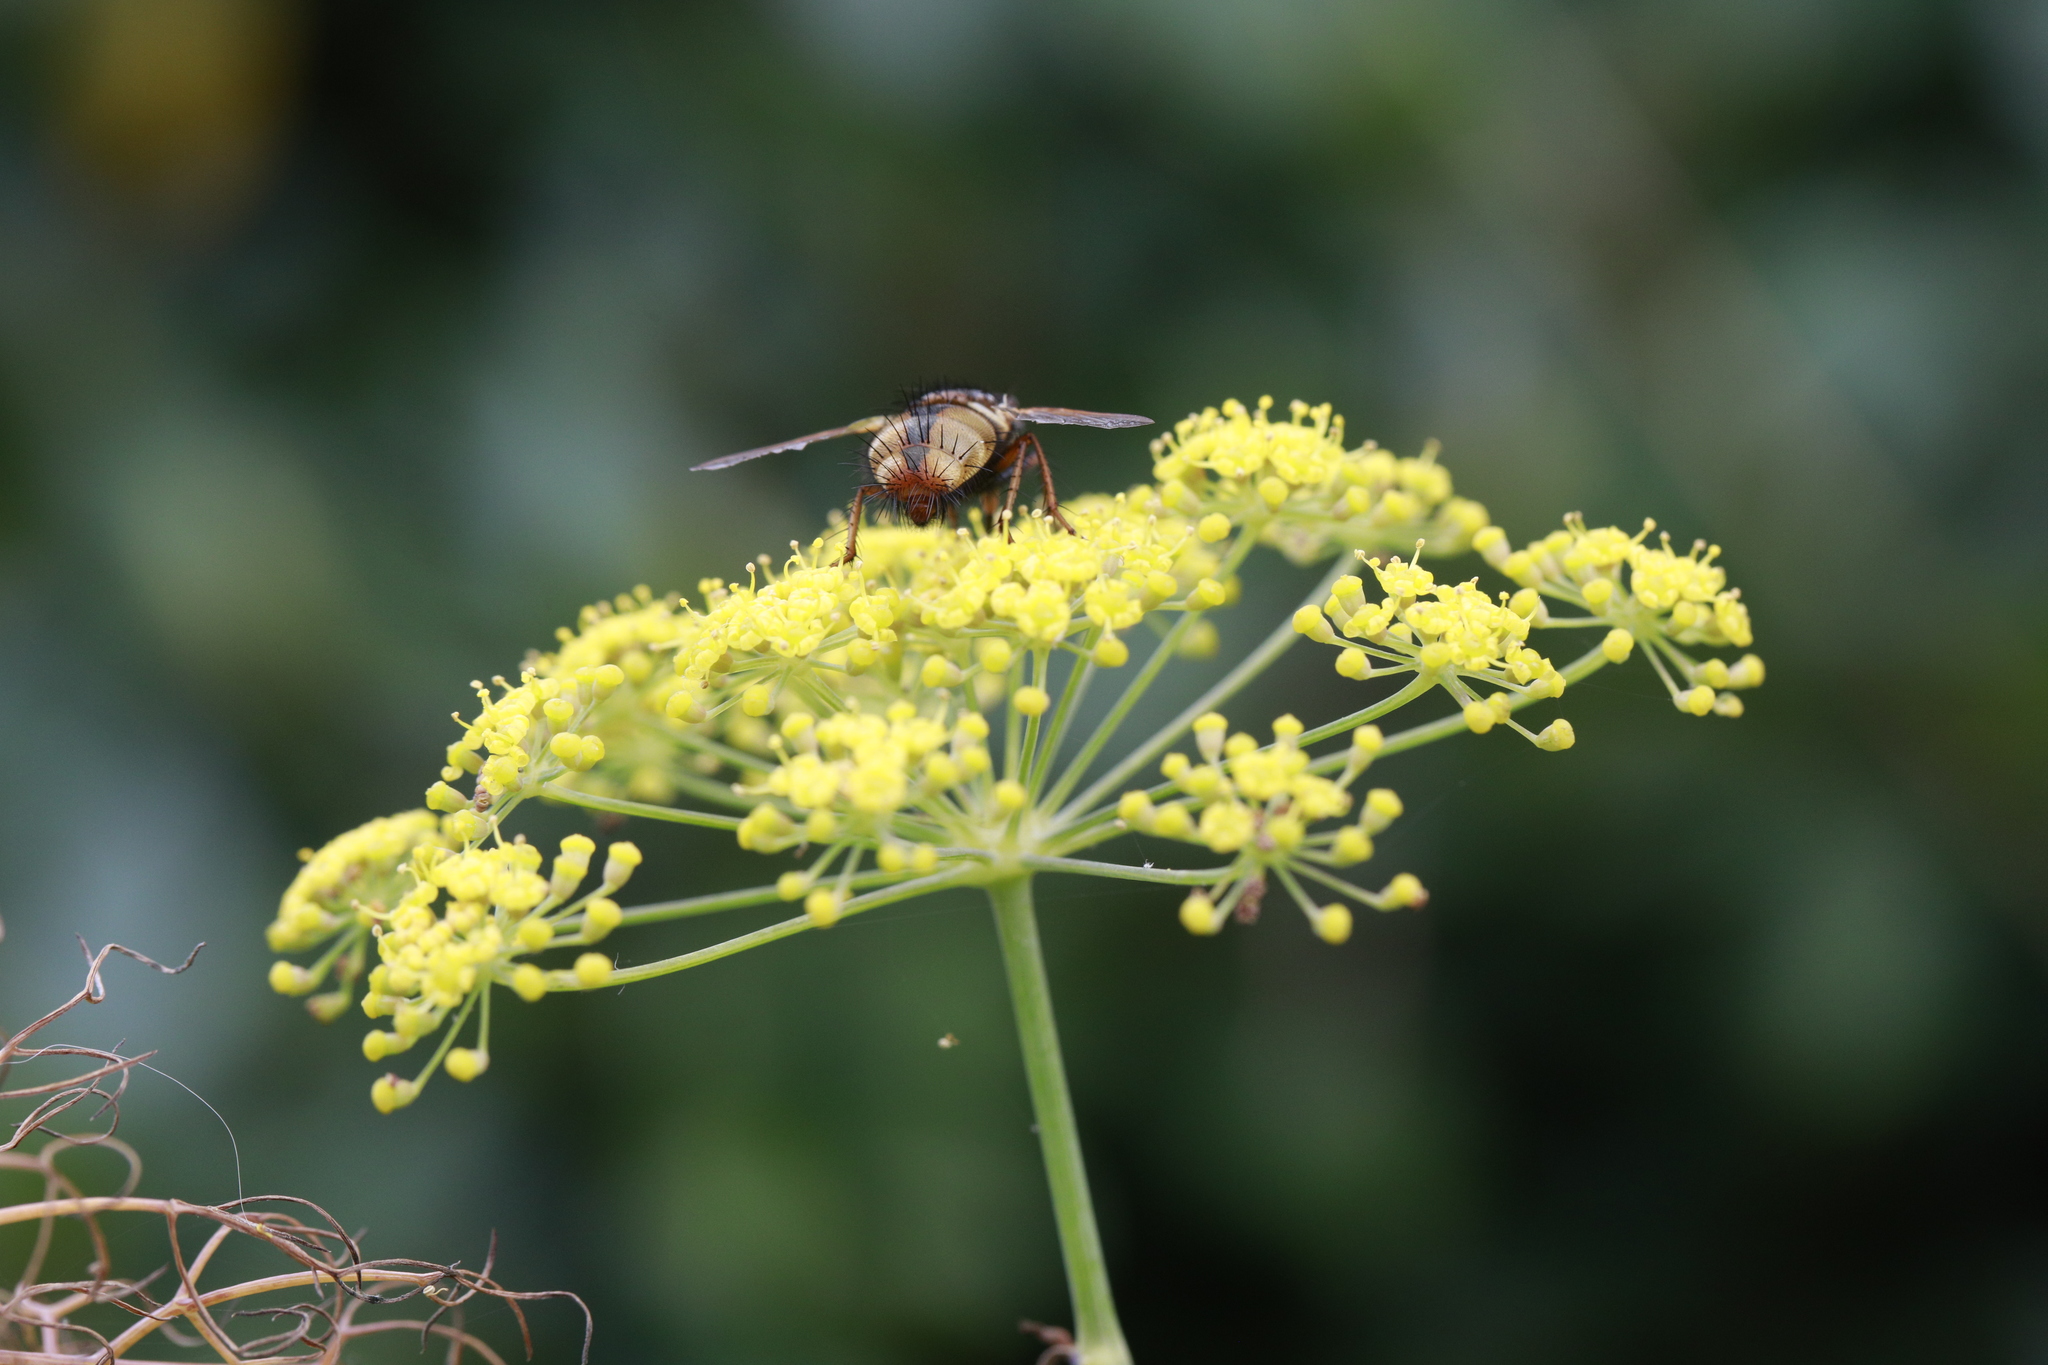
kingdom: Animalia
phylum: Arthropoda
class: Insecta
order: Diptera
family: Tachinidae
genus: Tachina
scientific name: Tachina fera
